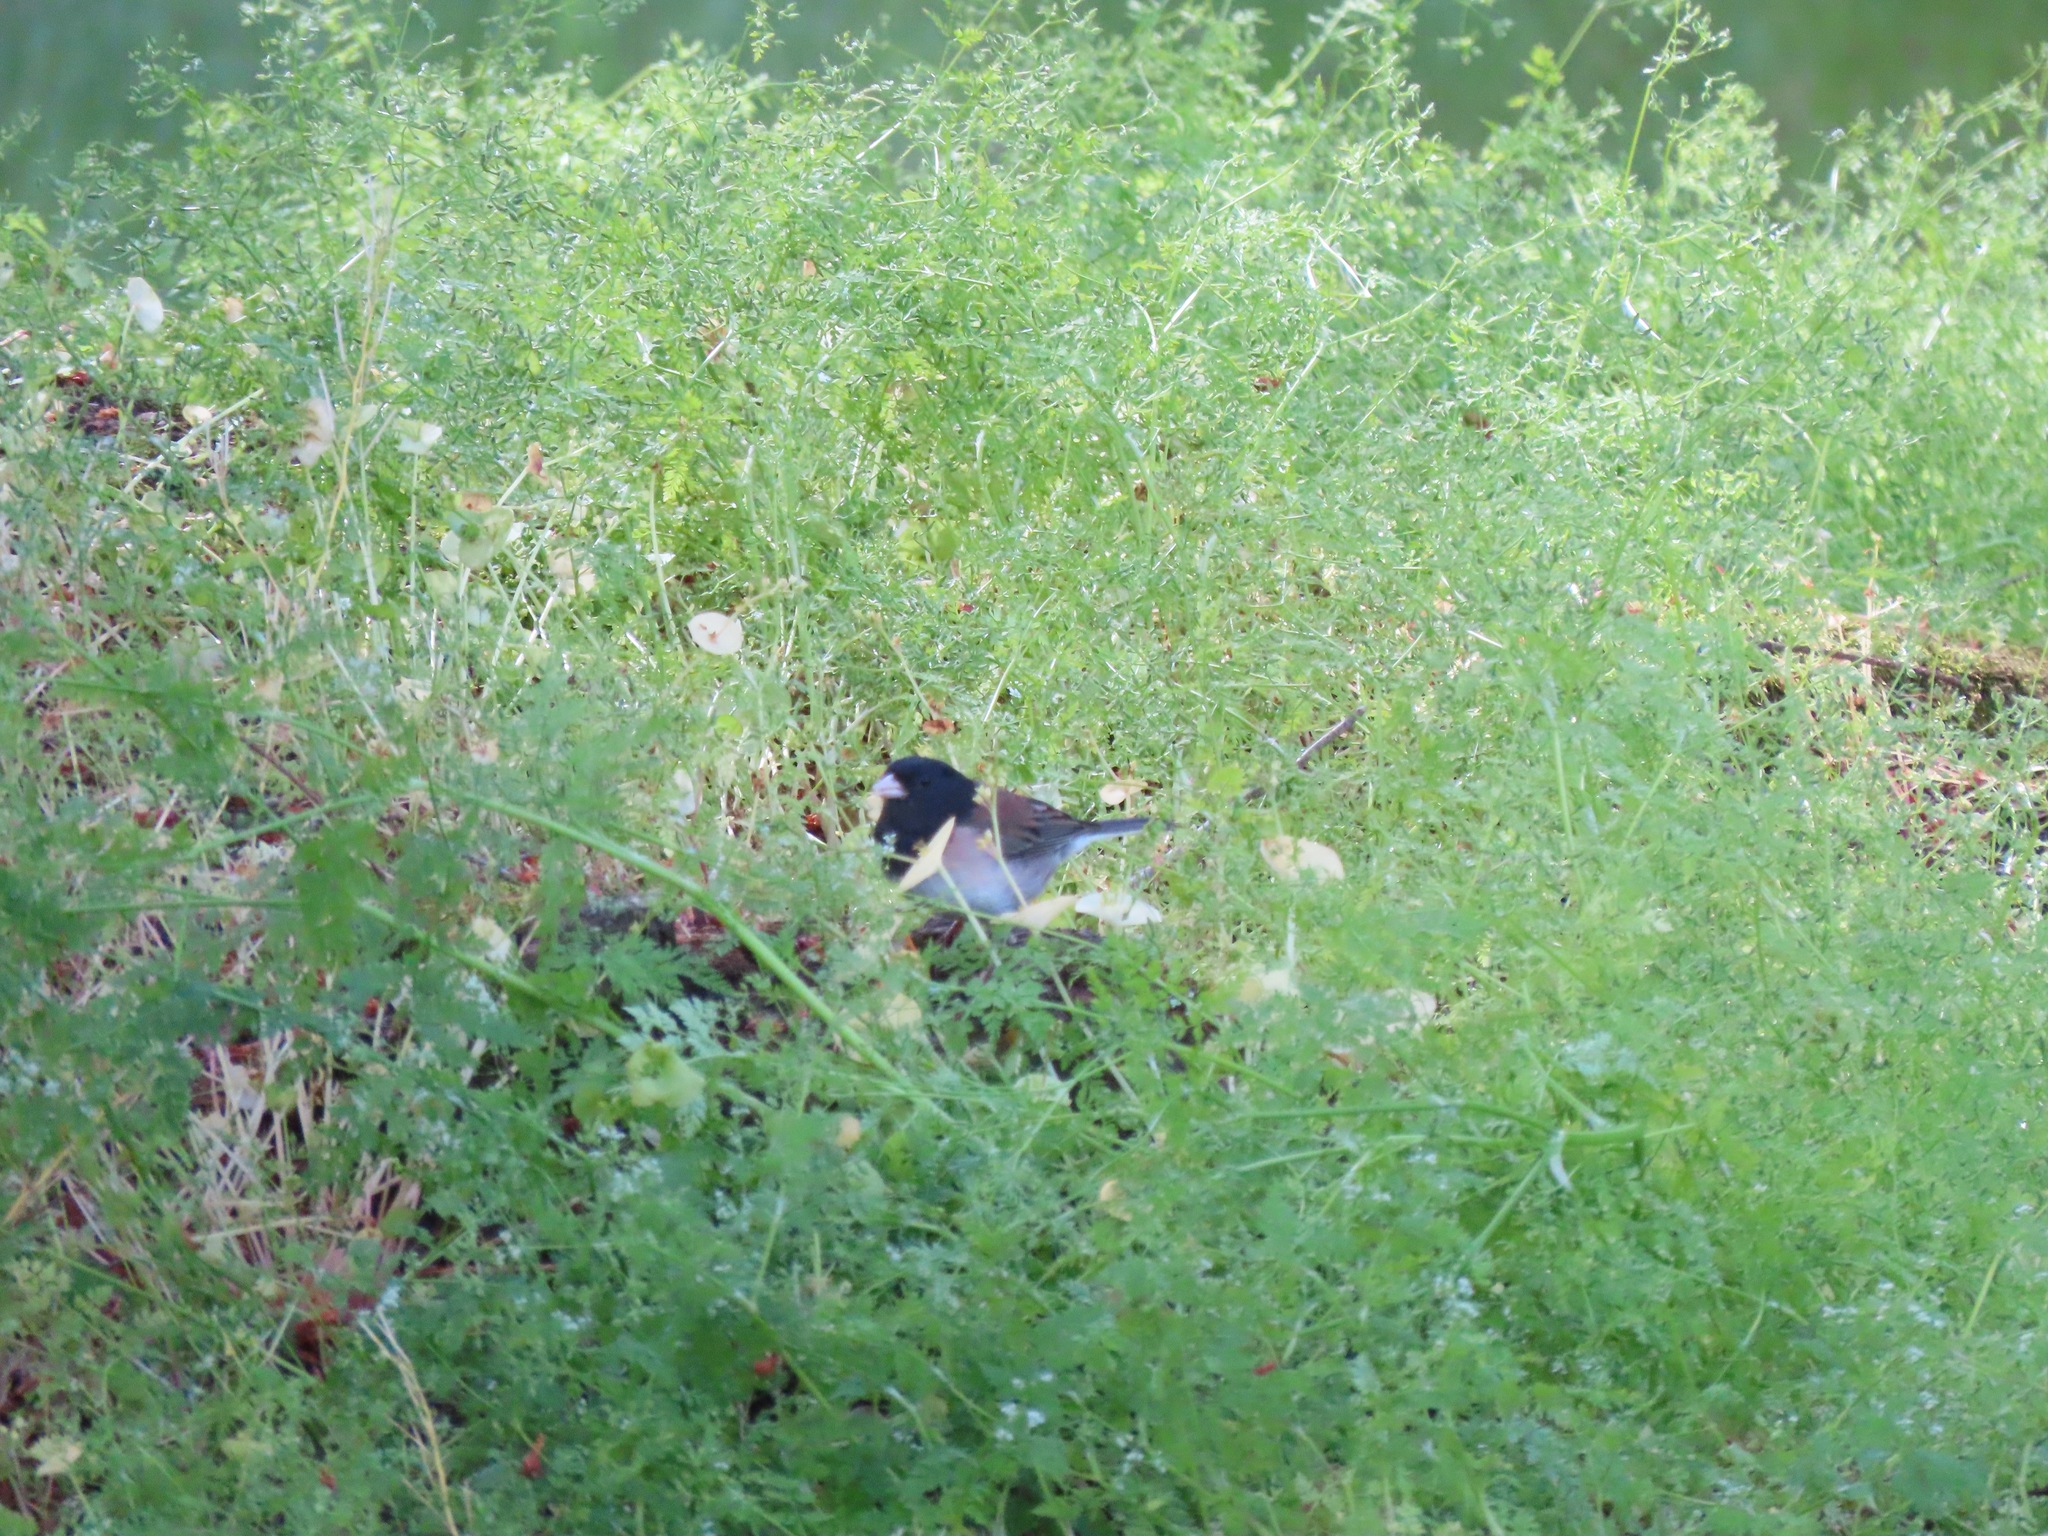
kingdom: Animalia
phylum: Chordata
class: Aves
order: Passeriformes
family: Passerellidae
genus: Junco
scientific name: Junco hyemalis
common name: Dark-eyed junco
